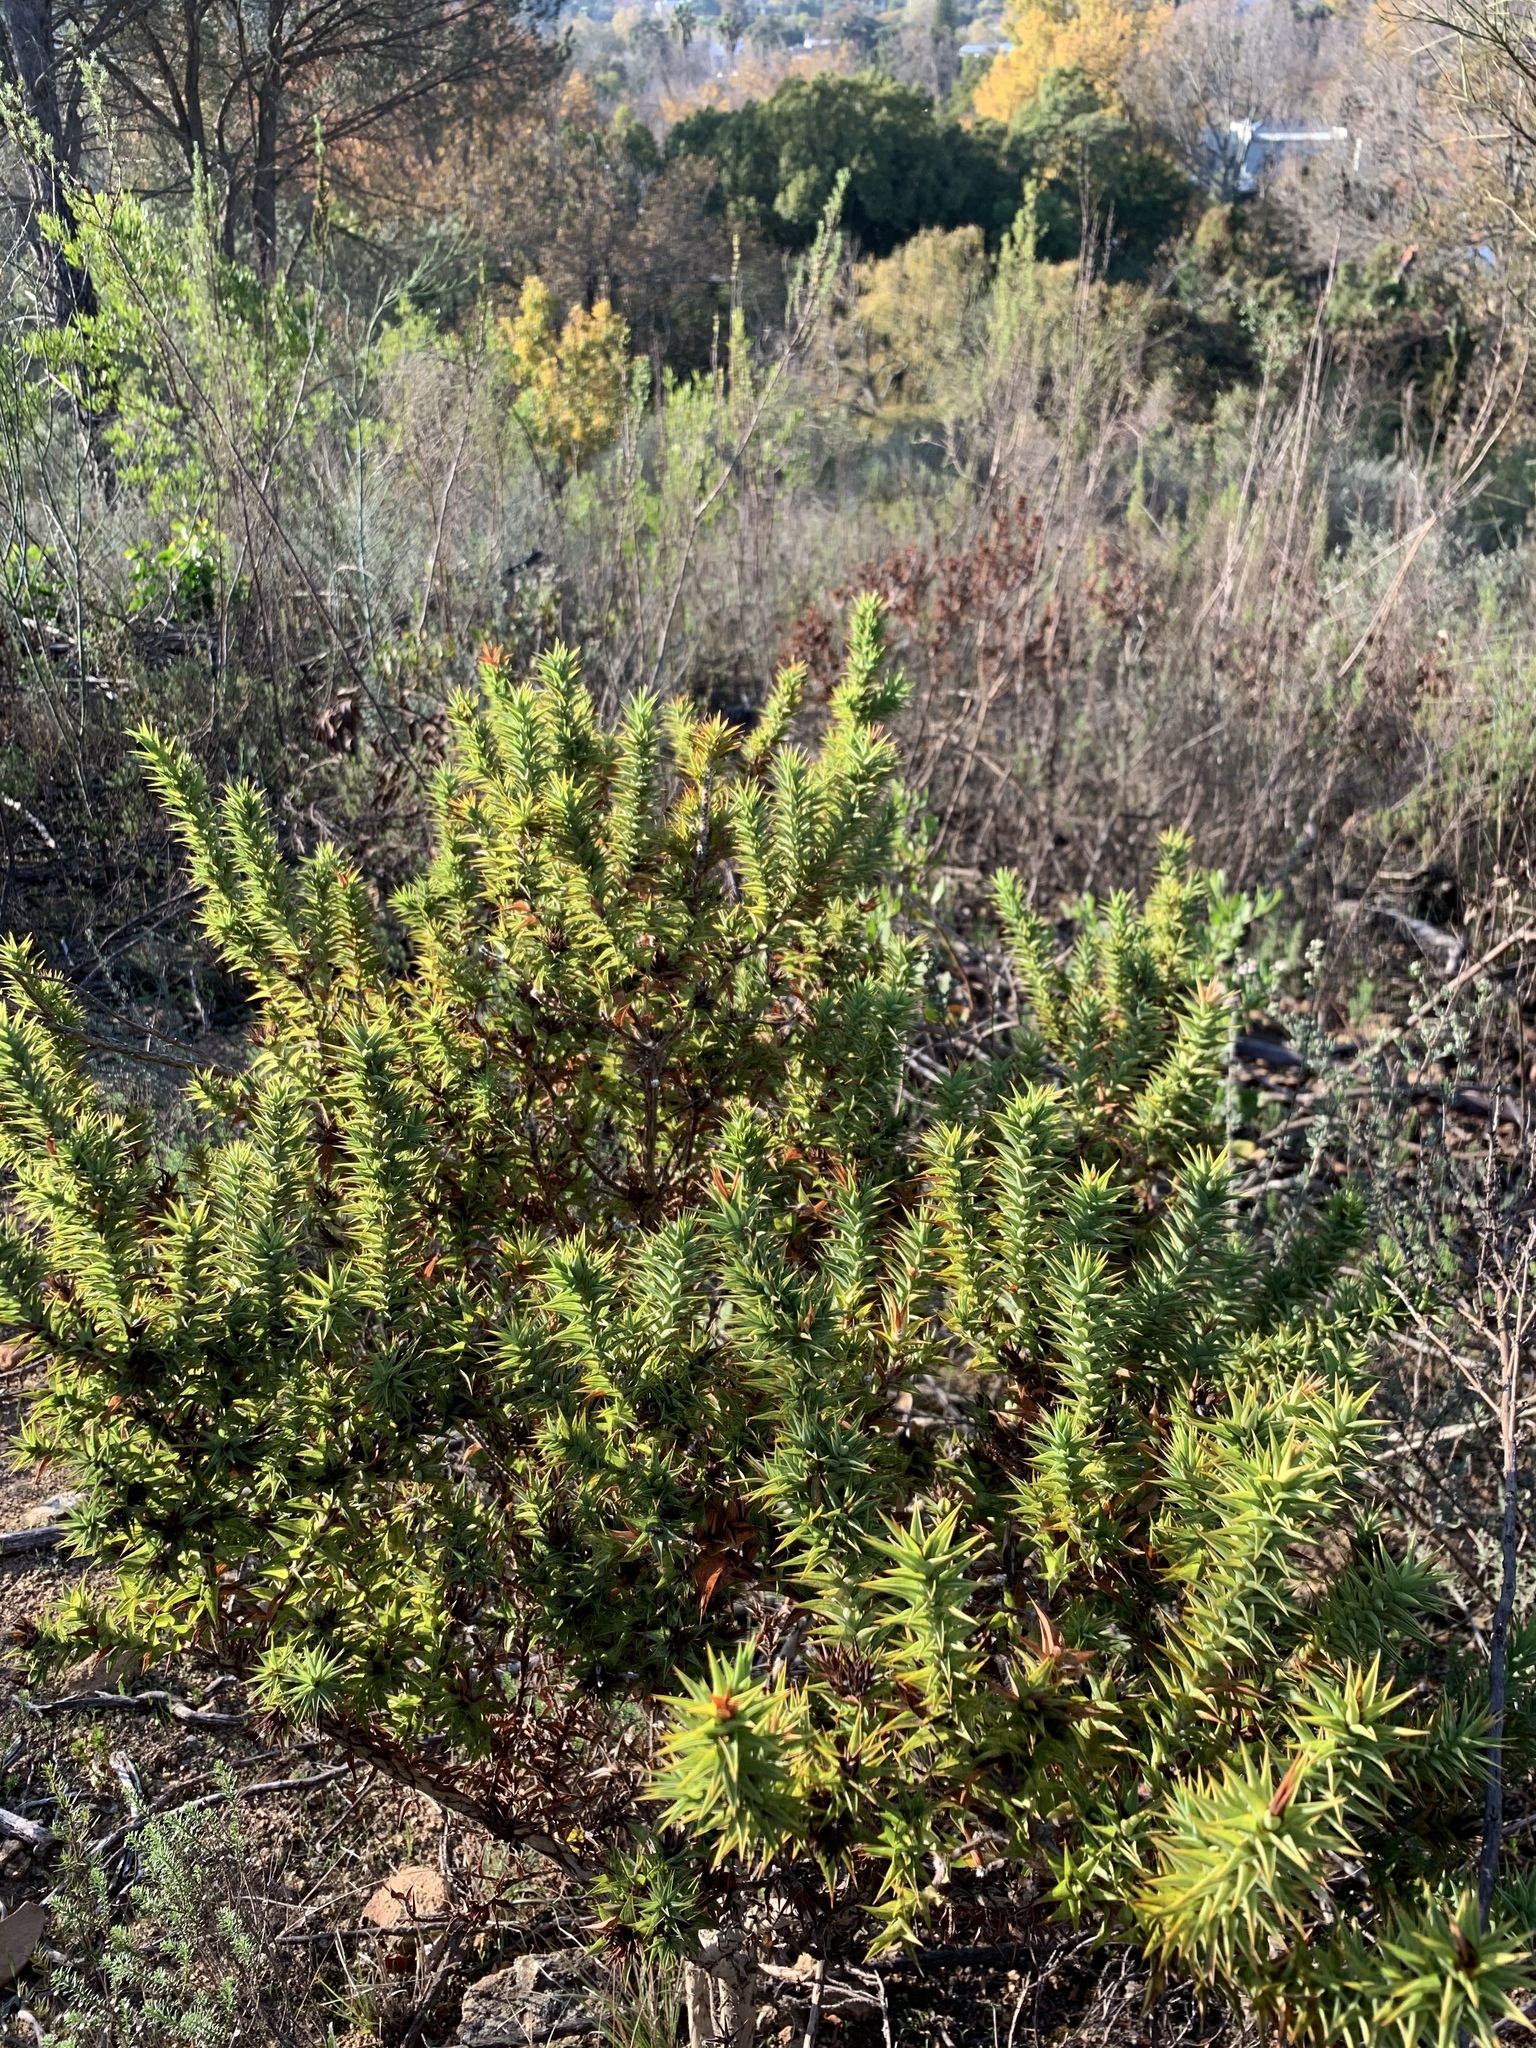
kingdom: Plantae
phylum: Tracheophyta
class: Magnoliopsida
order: Fabales
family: Fabaceae
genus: Aspalathus
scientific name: Aspalathus cordata
